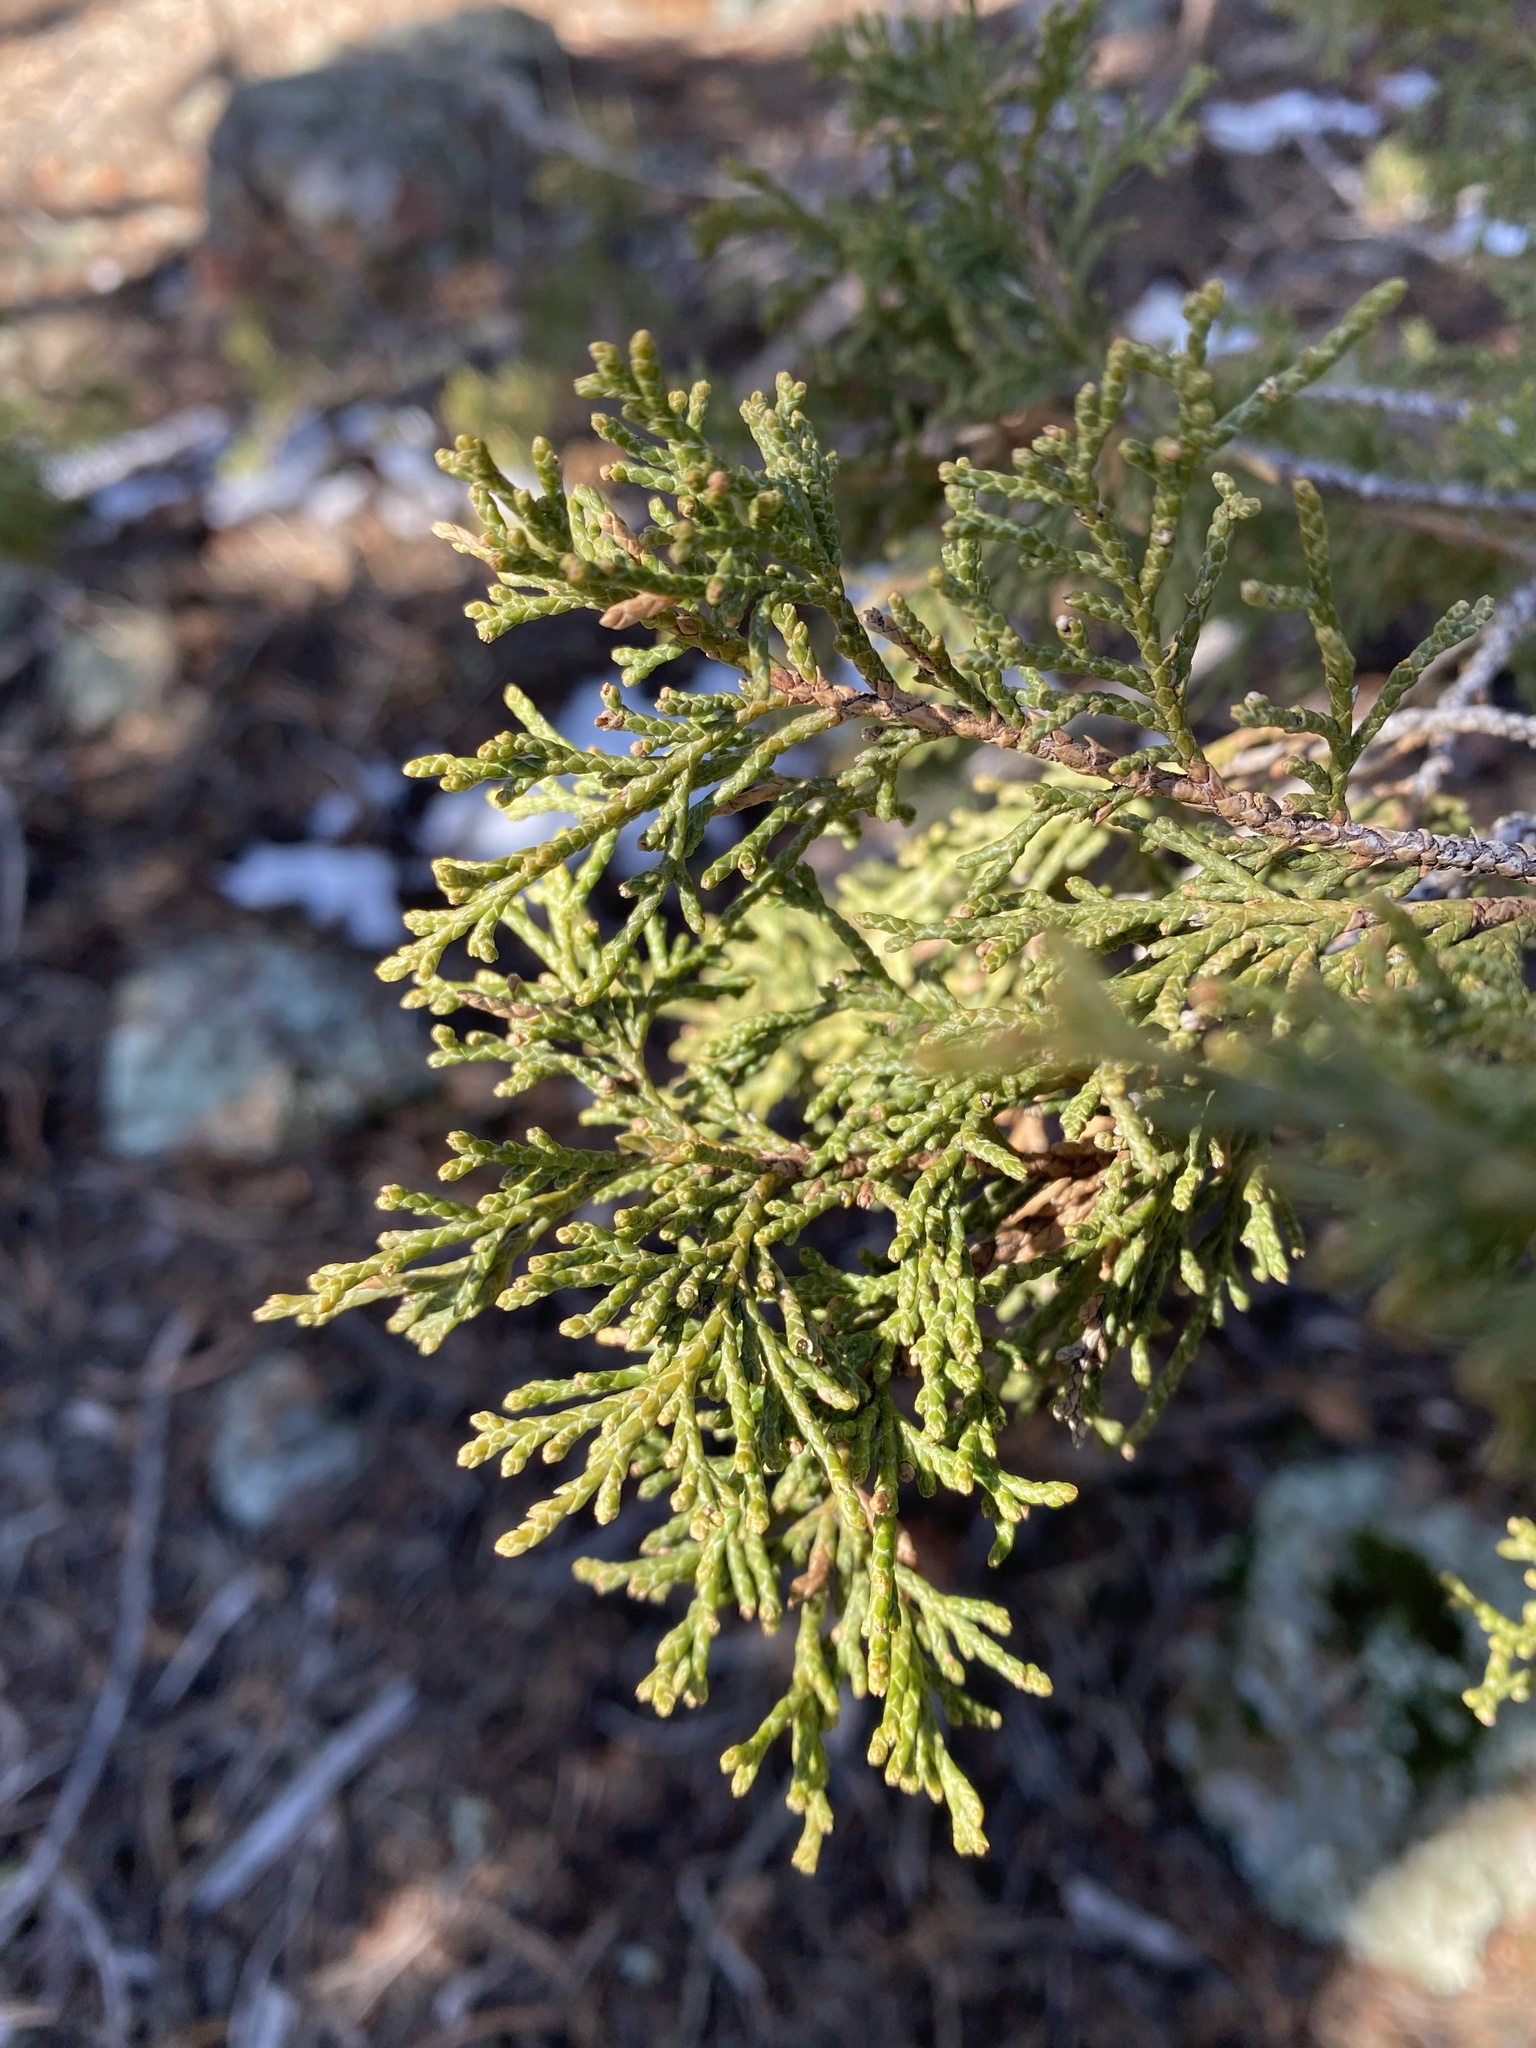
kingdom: Plantae
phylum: Tracheophyta
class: Pinopsida
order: Pinales
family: Cupressaceae
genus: Juniperus
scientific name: Juniperus scopulorum
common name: Rocky mountain juniper
